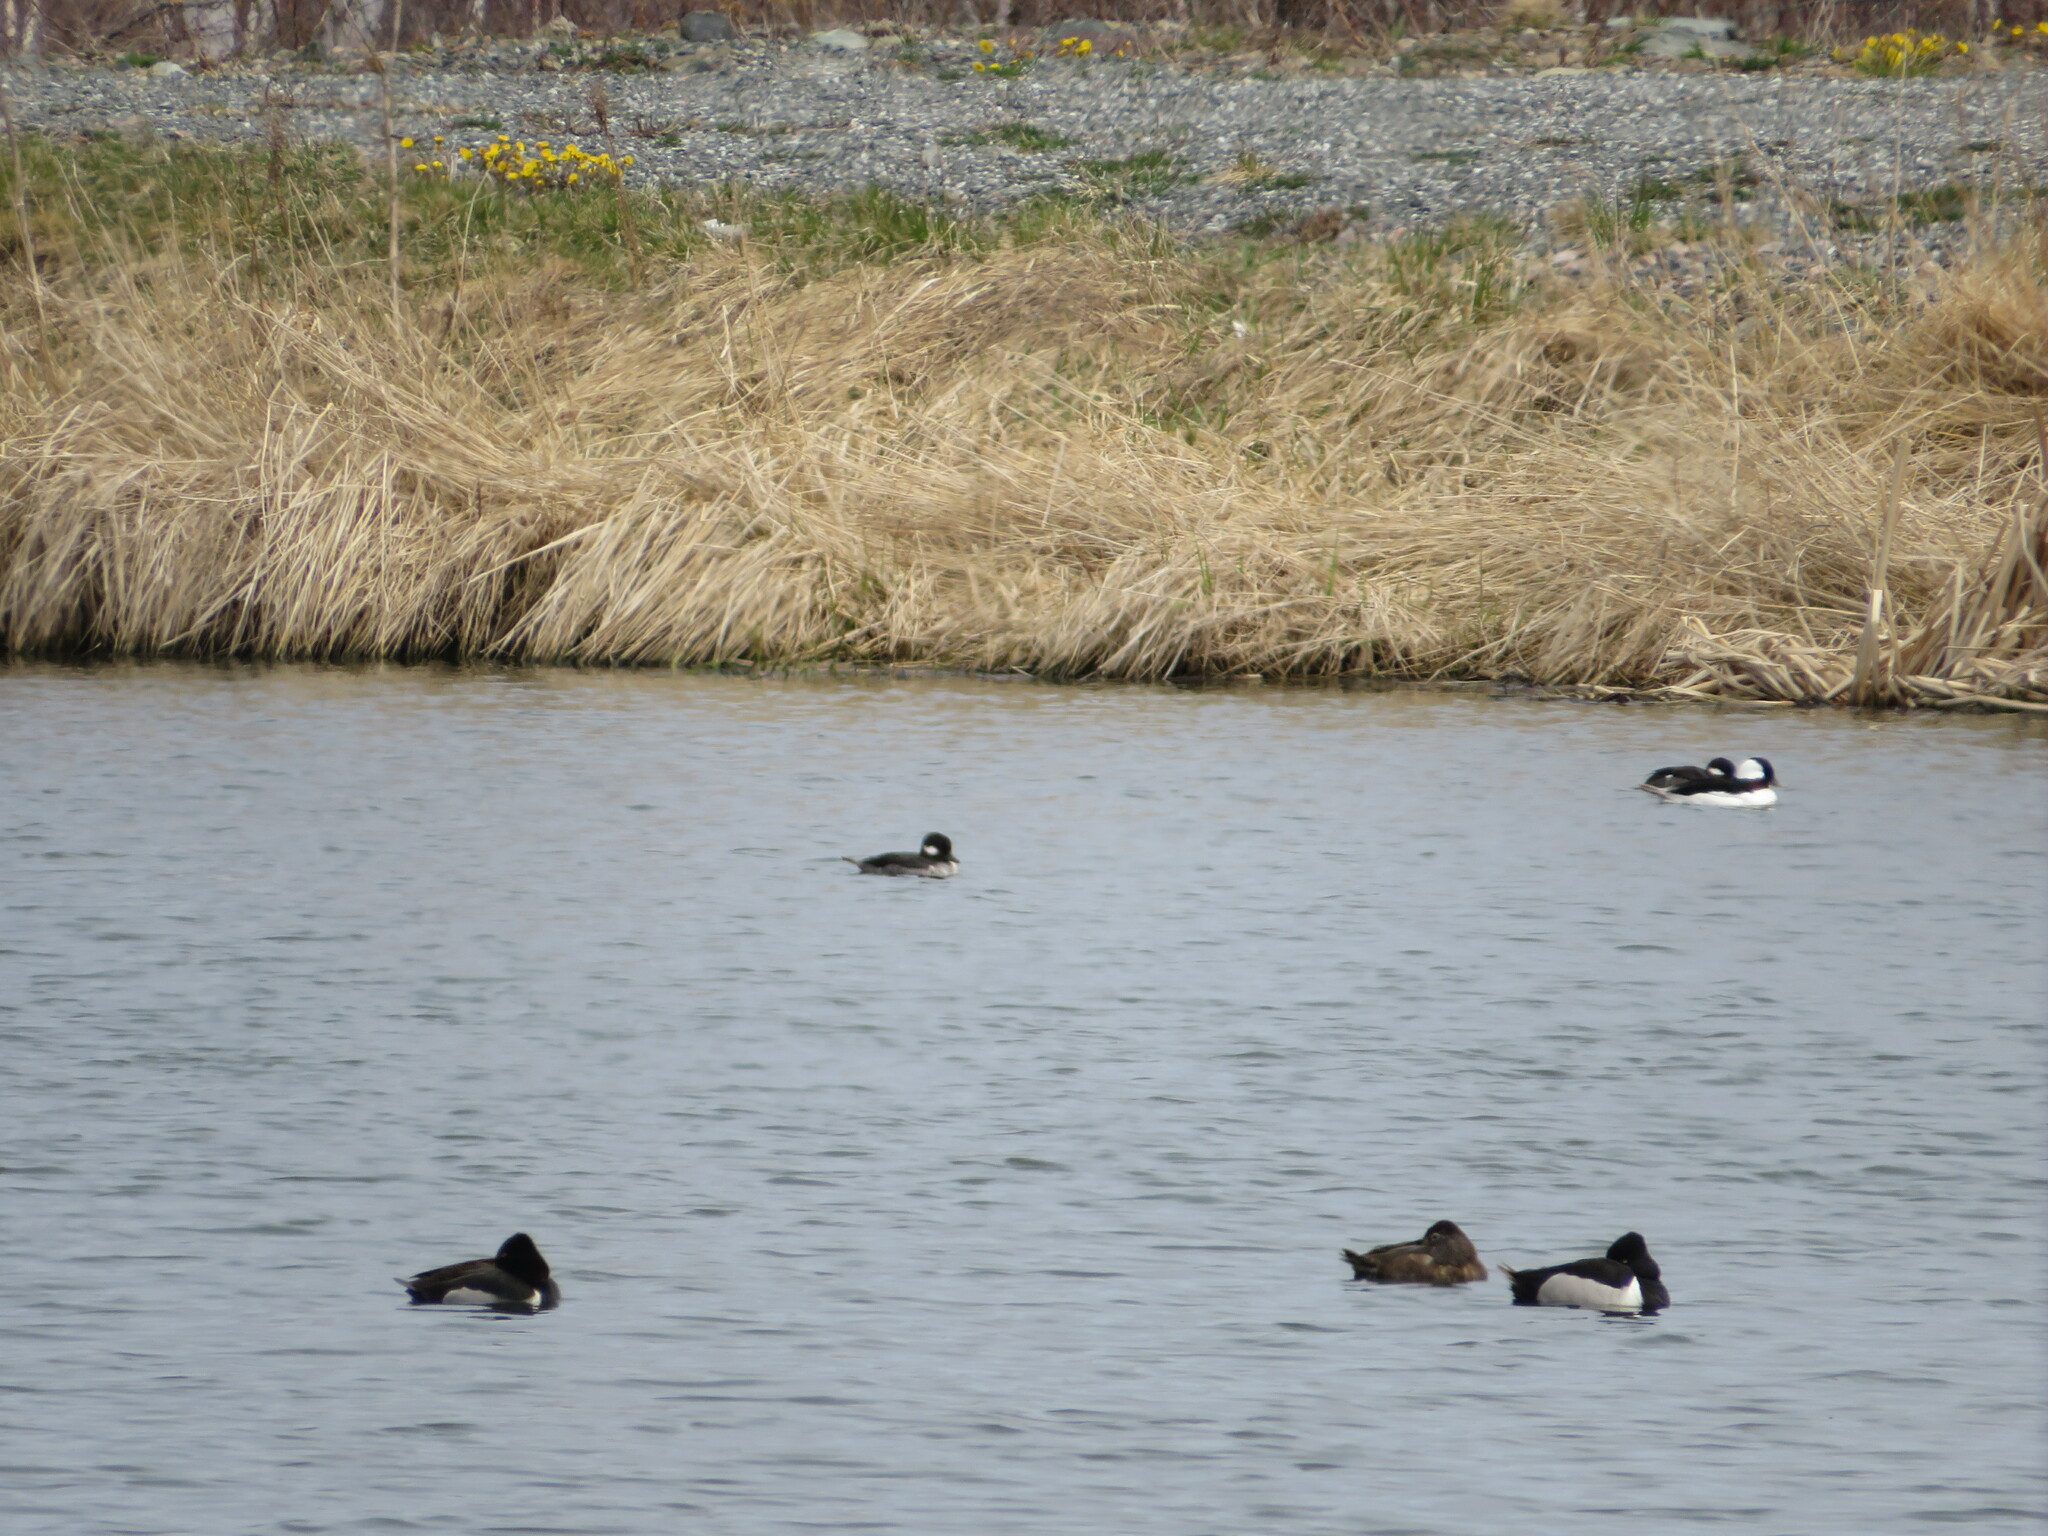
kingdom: Animalia
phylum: Chordata
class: Aves
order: Anseriformes
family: Anatidae
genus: Aythya
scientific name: Aythya collaris
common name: Ring-necked duck
